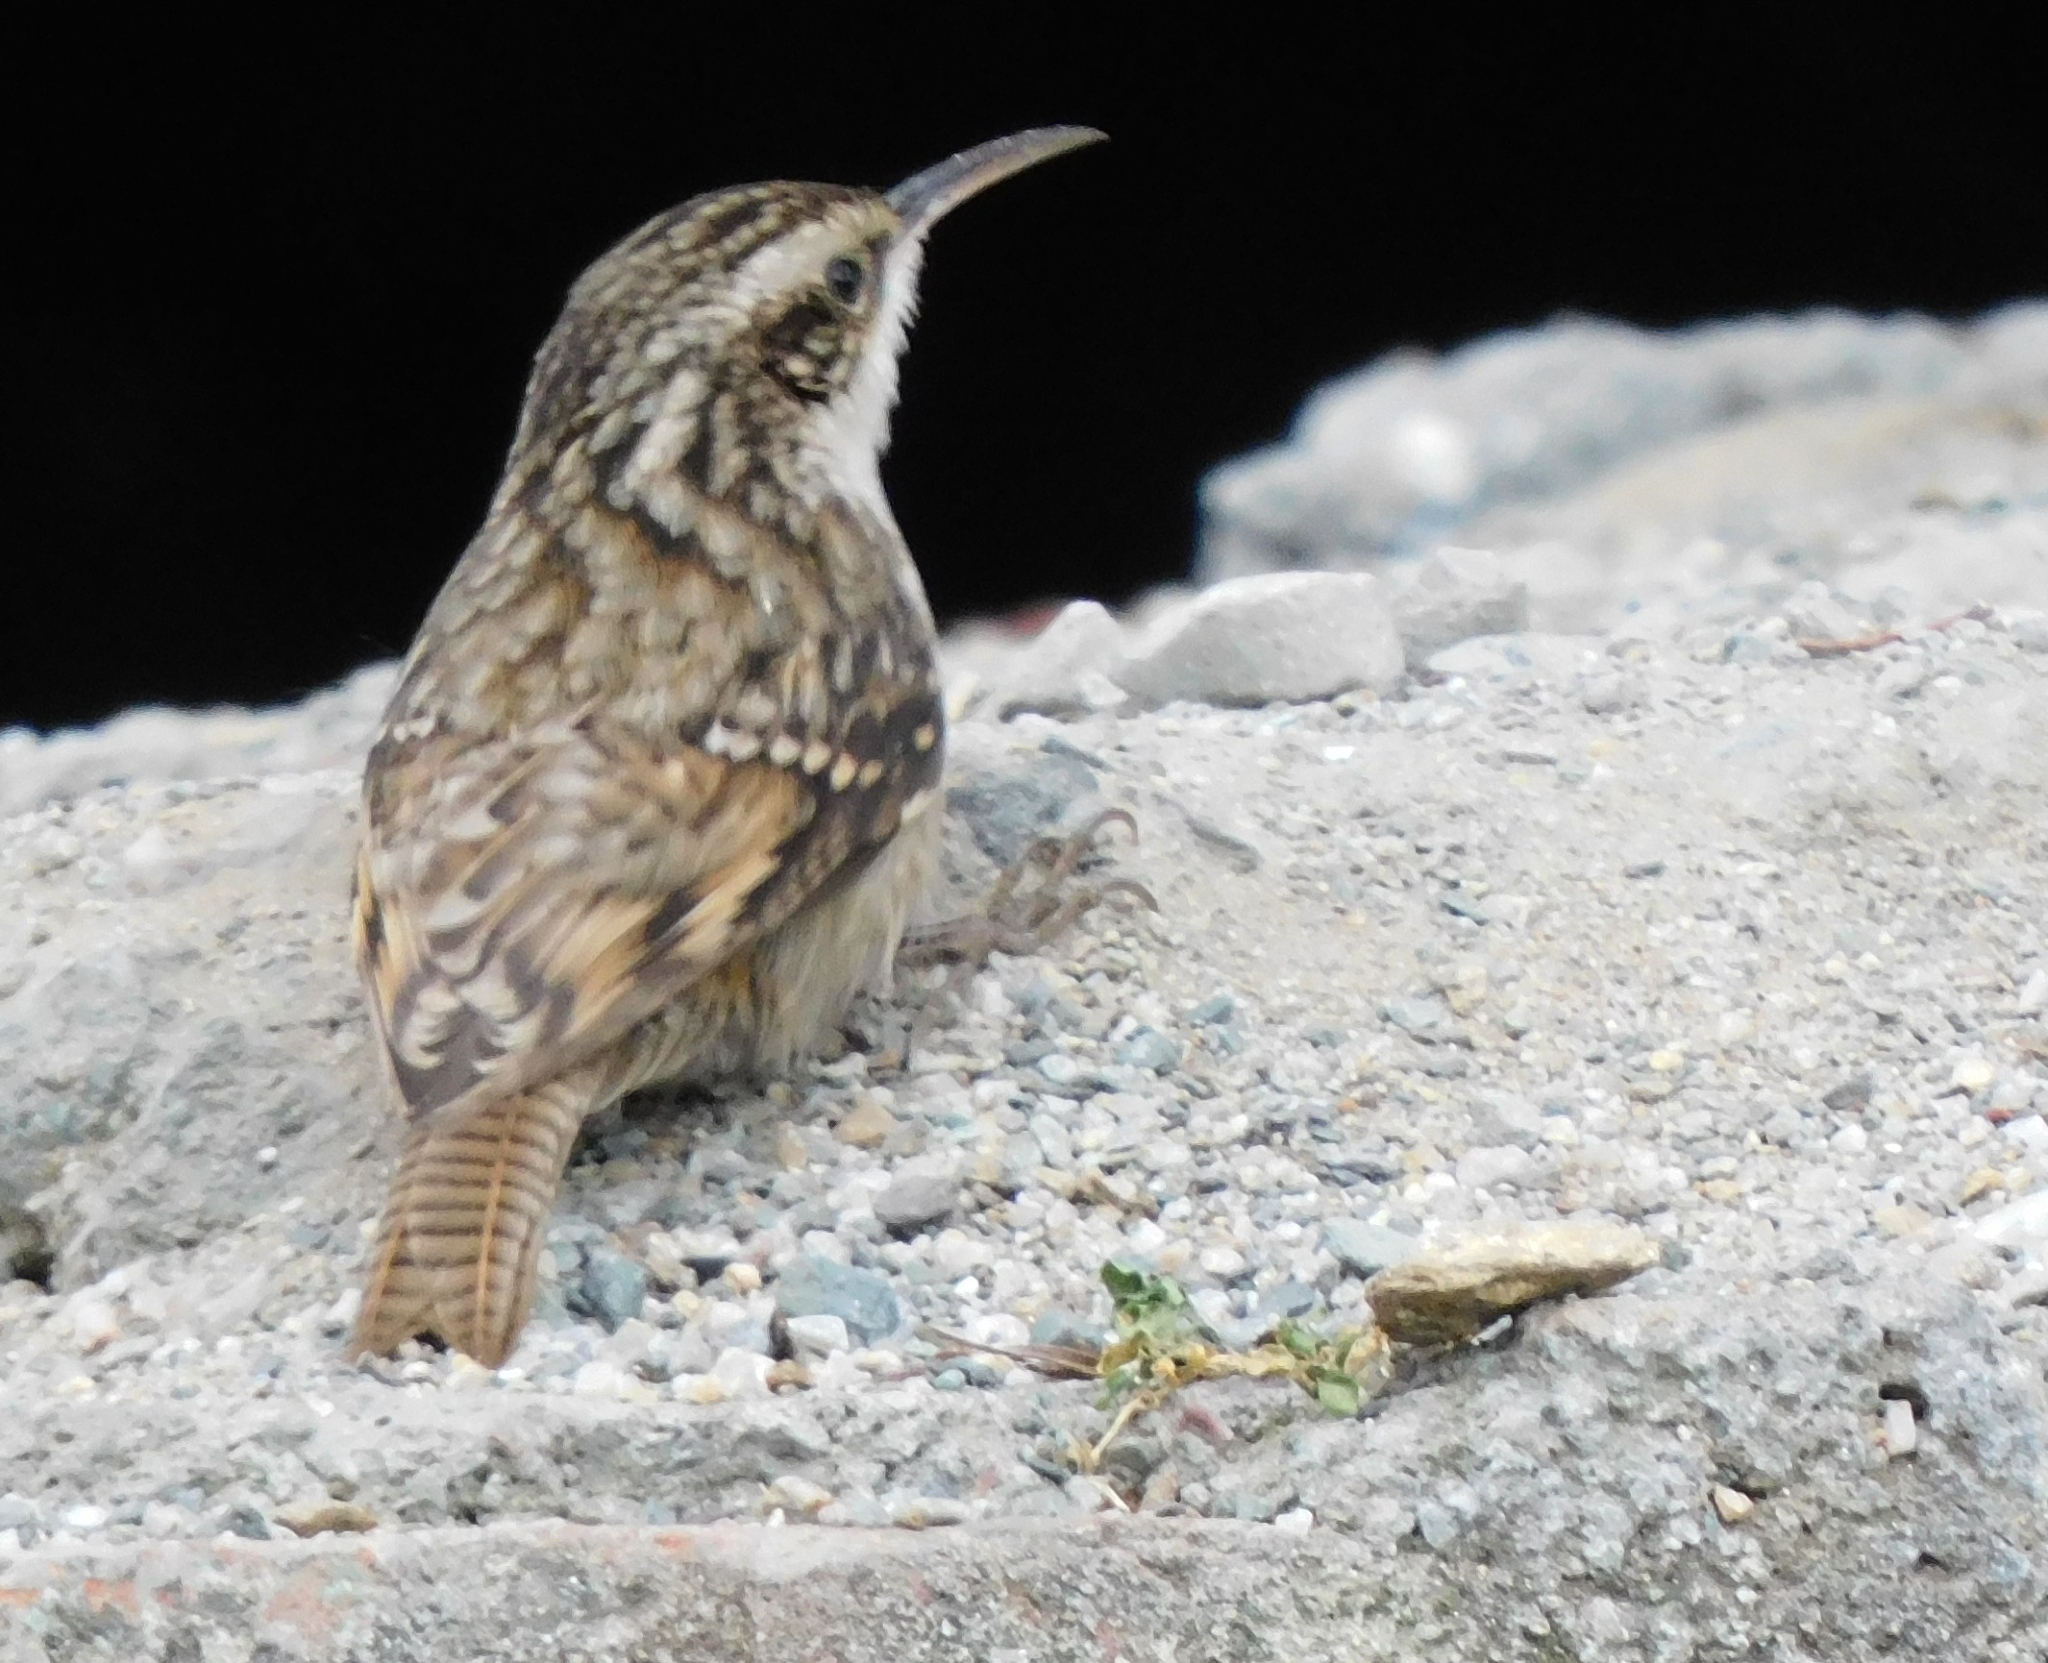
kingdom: Animalia
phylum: Chordata
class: Aves
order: Passeriformes
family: Certhiidae
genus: Certhia
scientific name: Certhia himalayana
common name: Bar-tailed treecreeper
